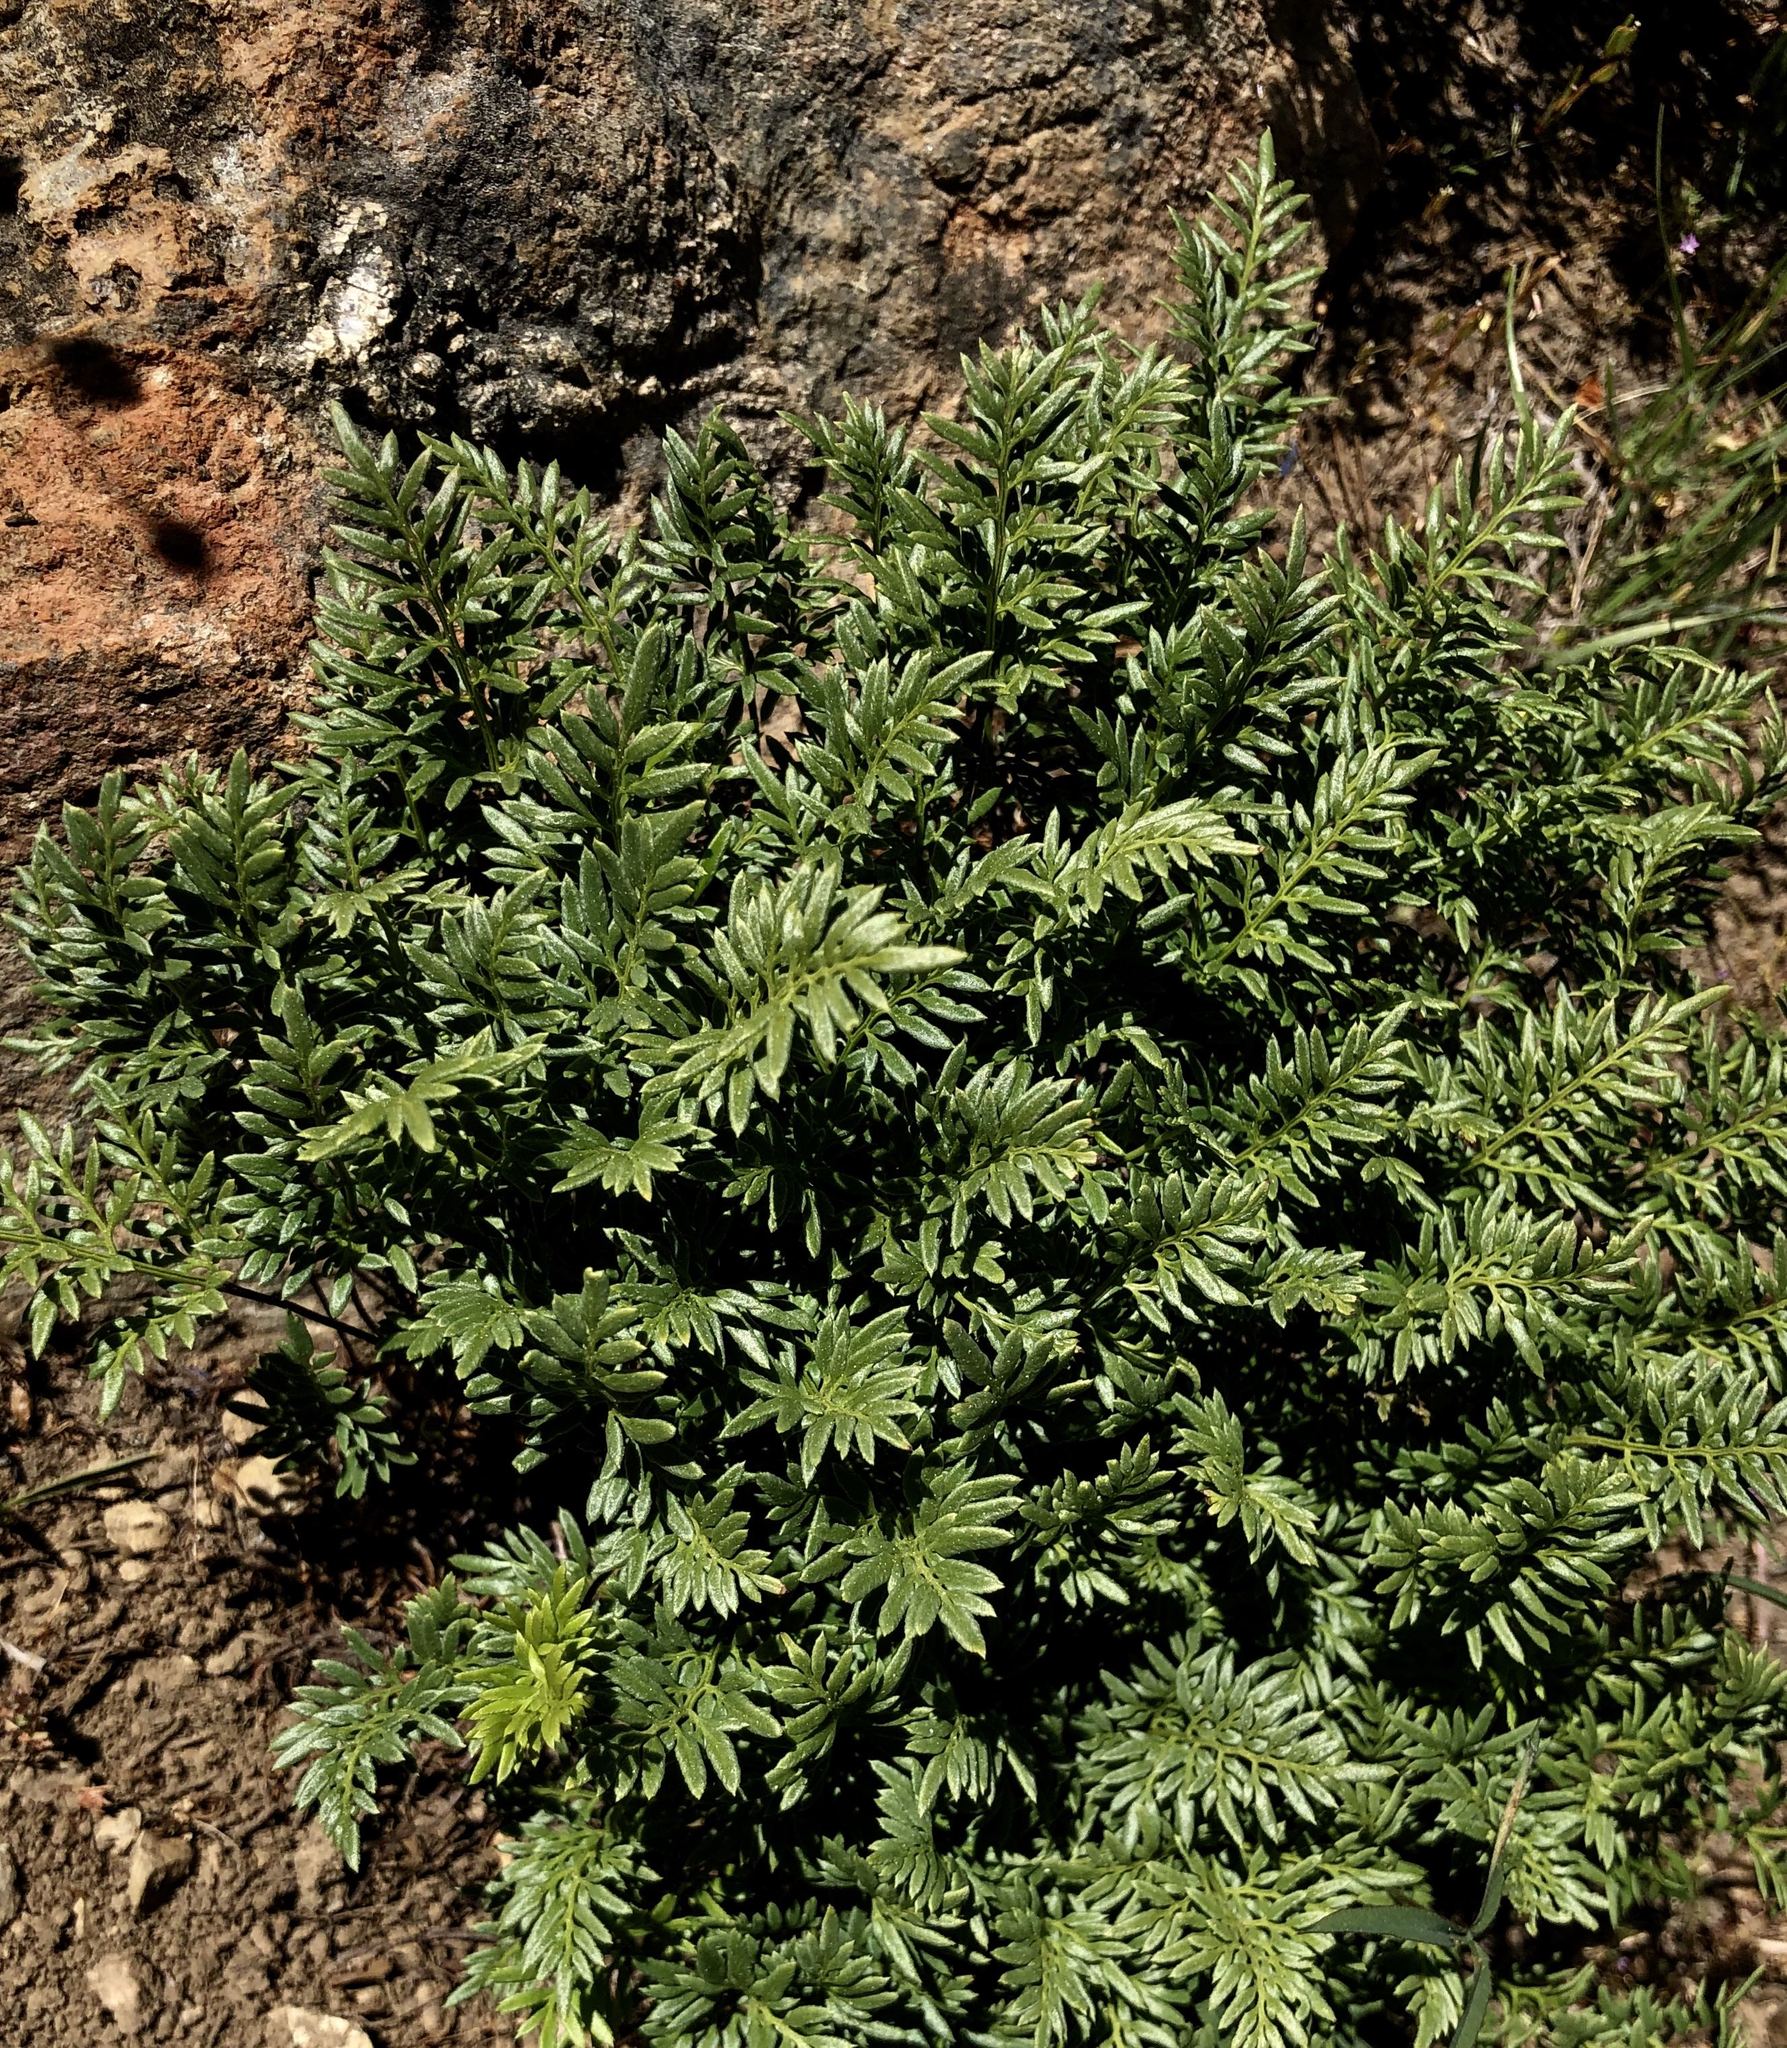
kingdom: Plantae
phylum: Tracheophyta
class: Polypodiopsida
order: Polypodiales
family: Pteridaceae
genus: Aspidotis
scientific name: Aspidotis densa
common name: Indian's dream
